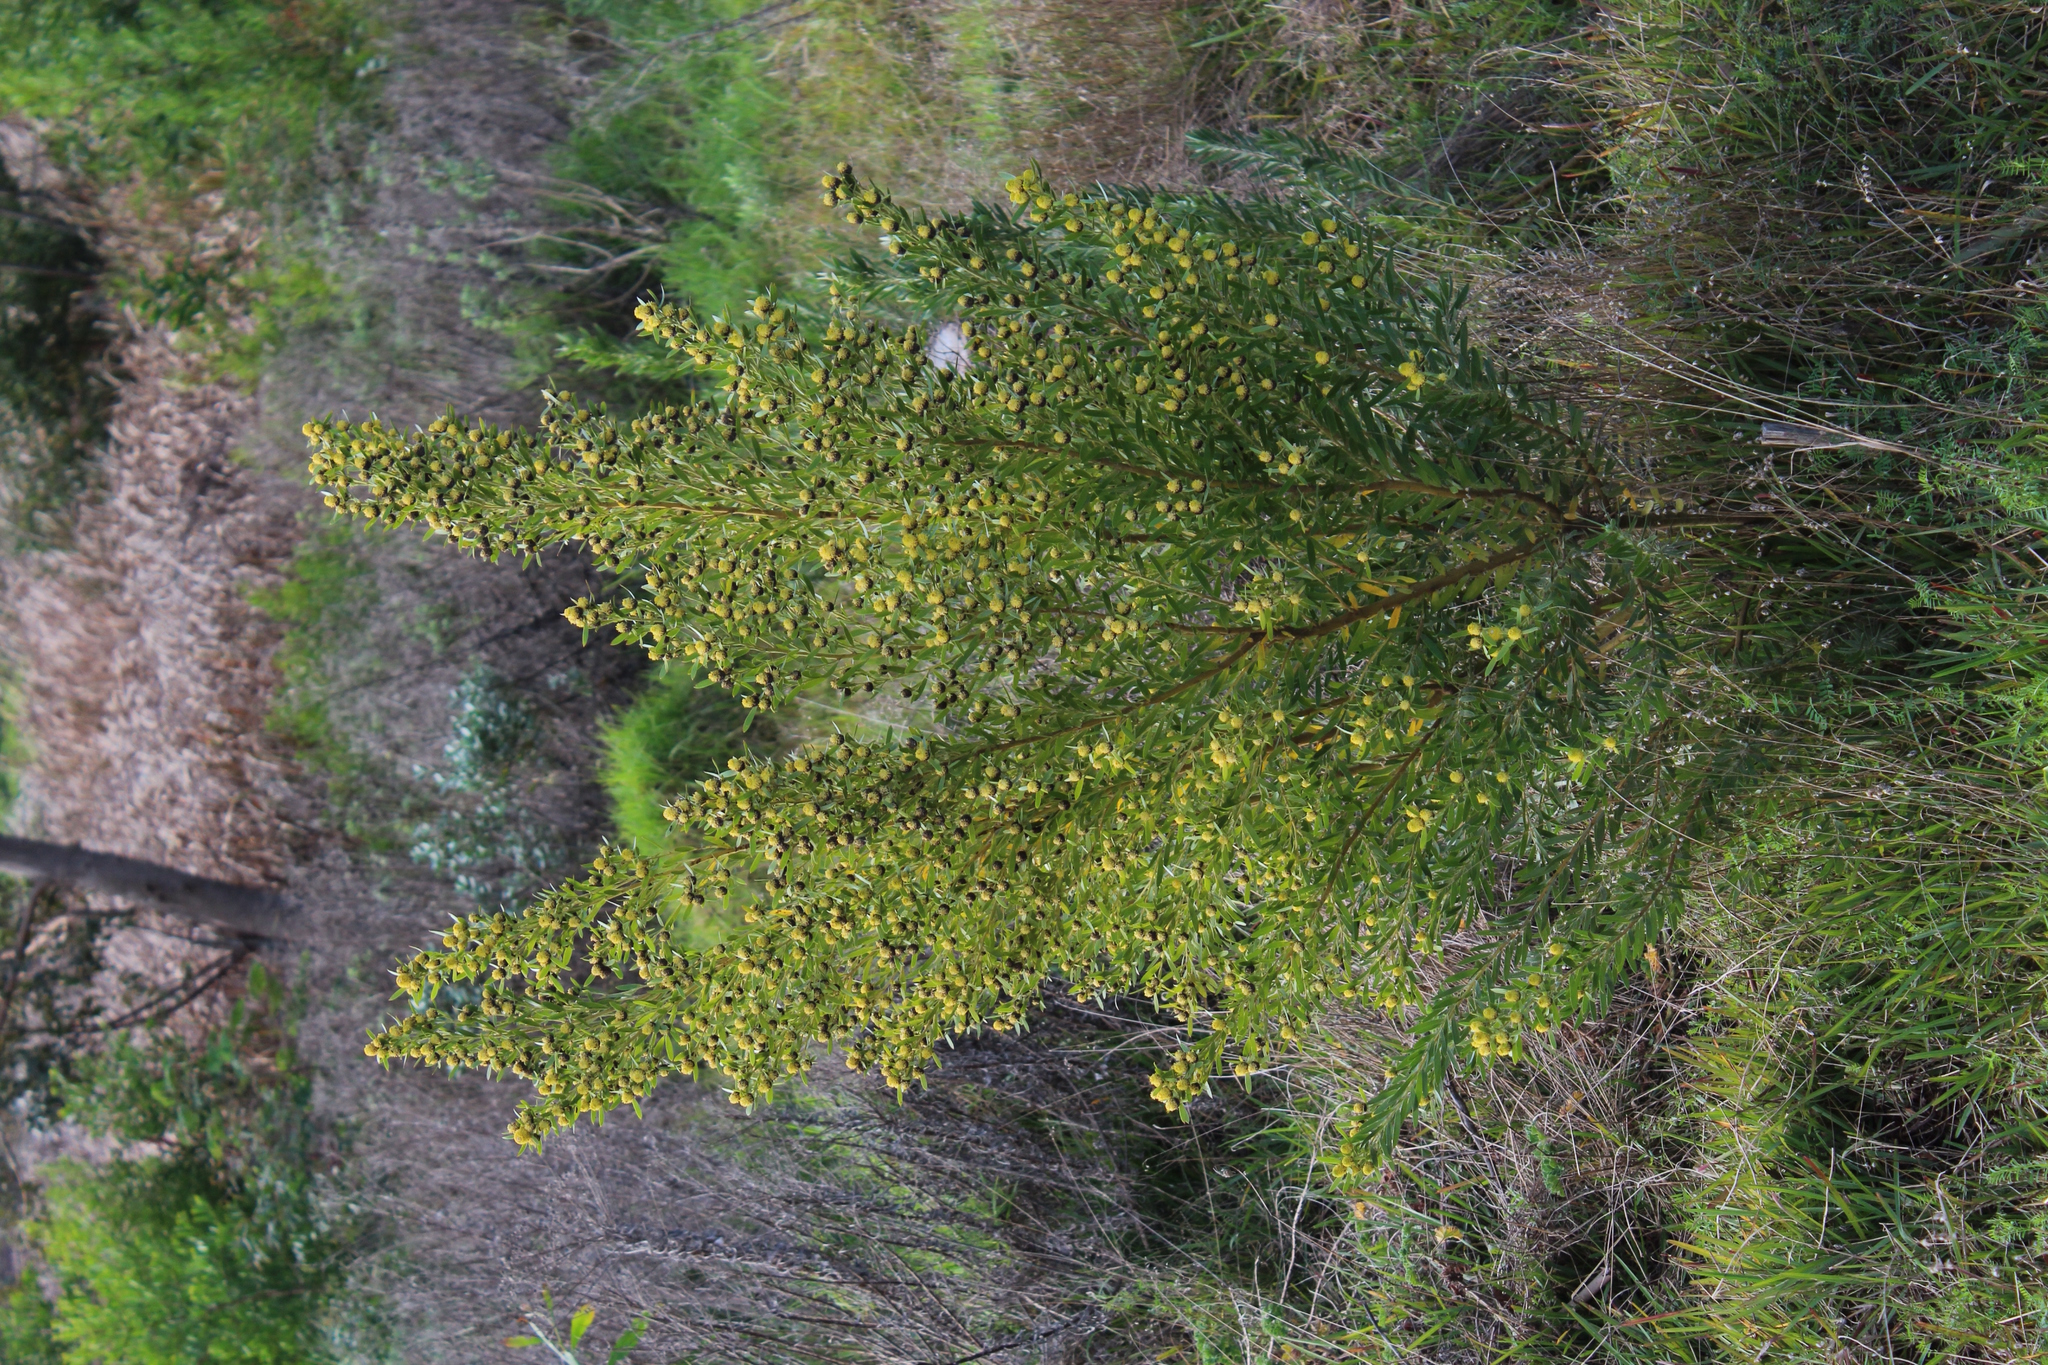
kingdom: Plantae
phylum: Tracheophyta
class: Magnoliopsida
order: Proteales
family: Proteaceae
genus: Leucadendron
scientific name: Leucadendron macowanii
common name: Acacia-leaf conebush
